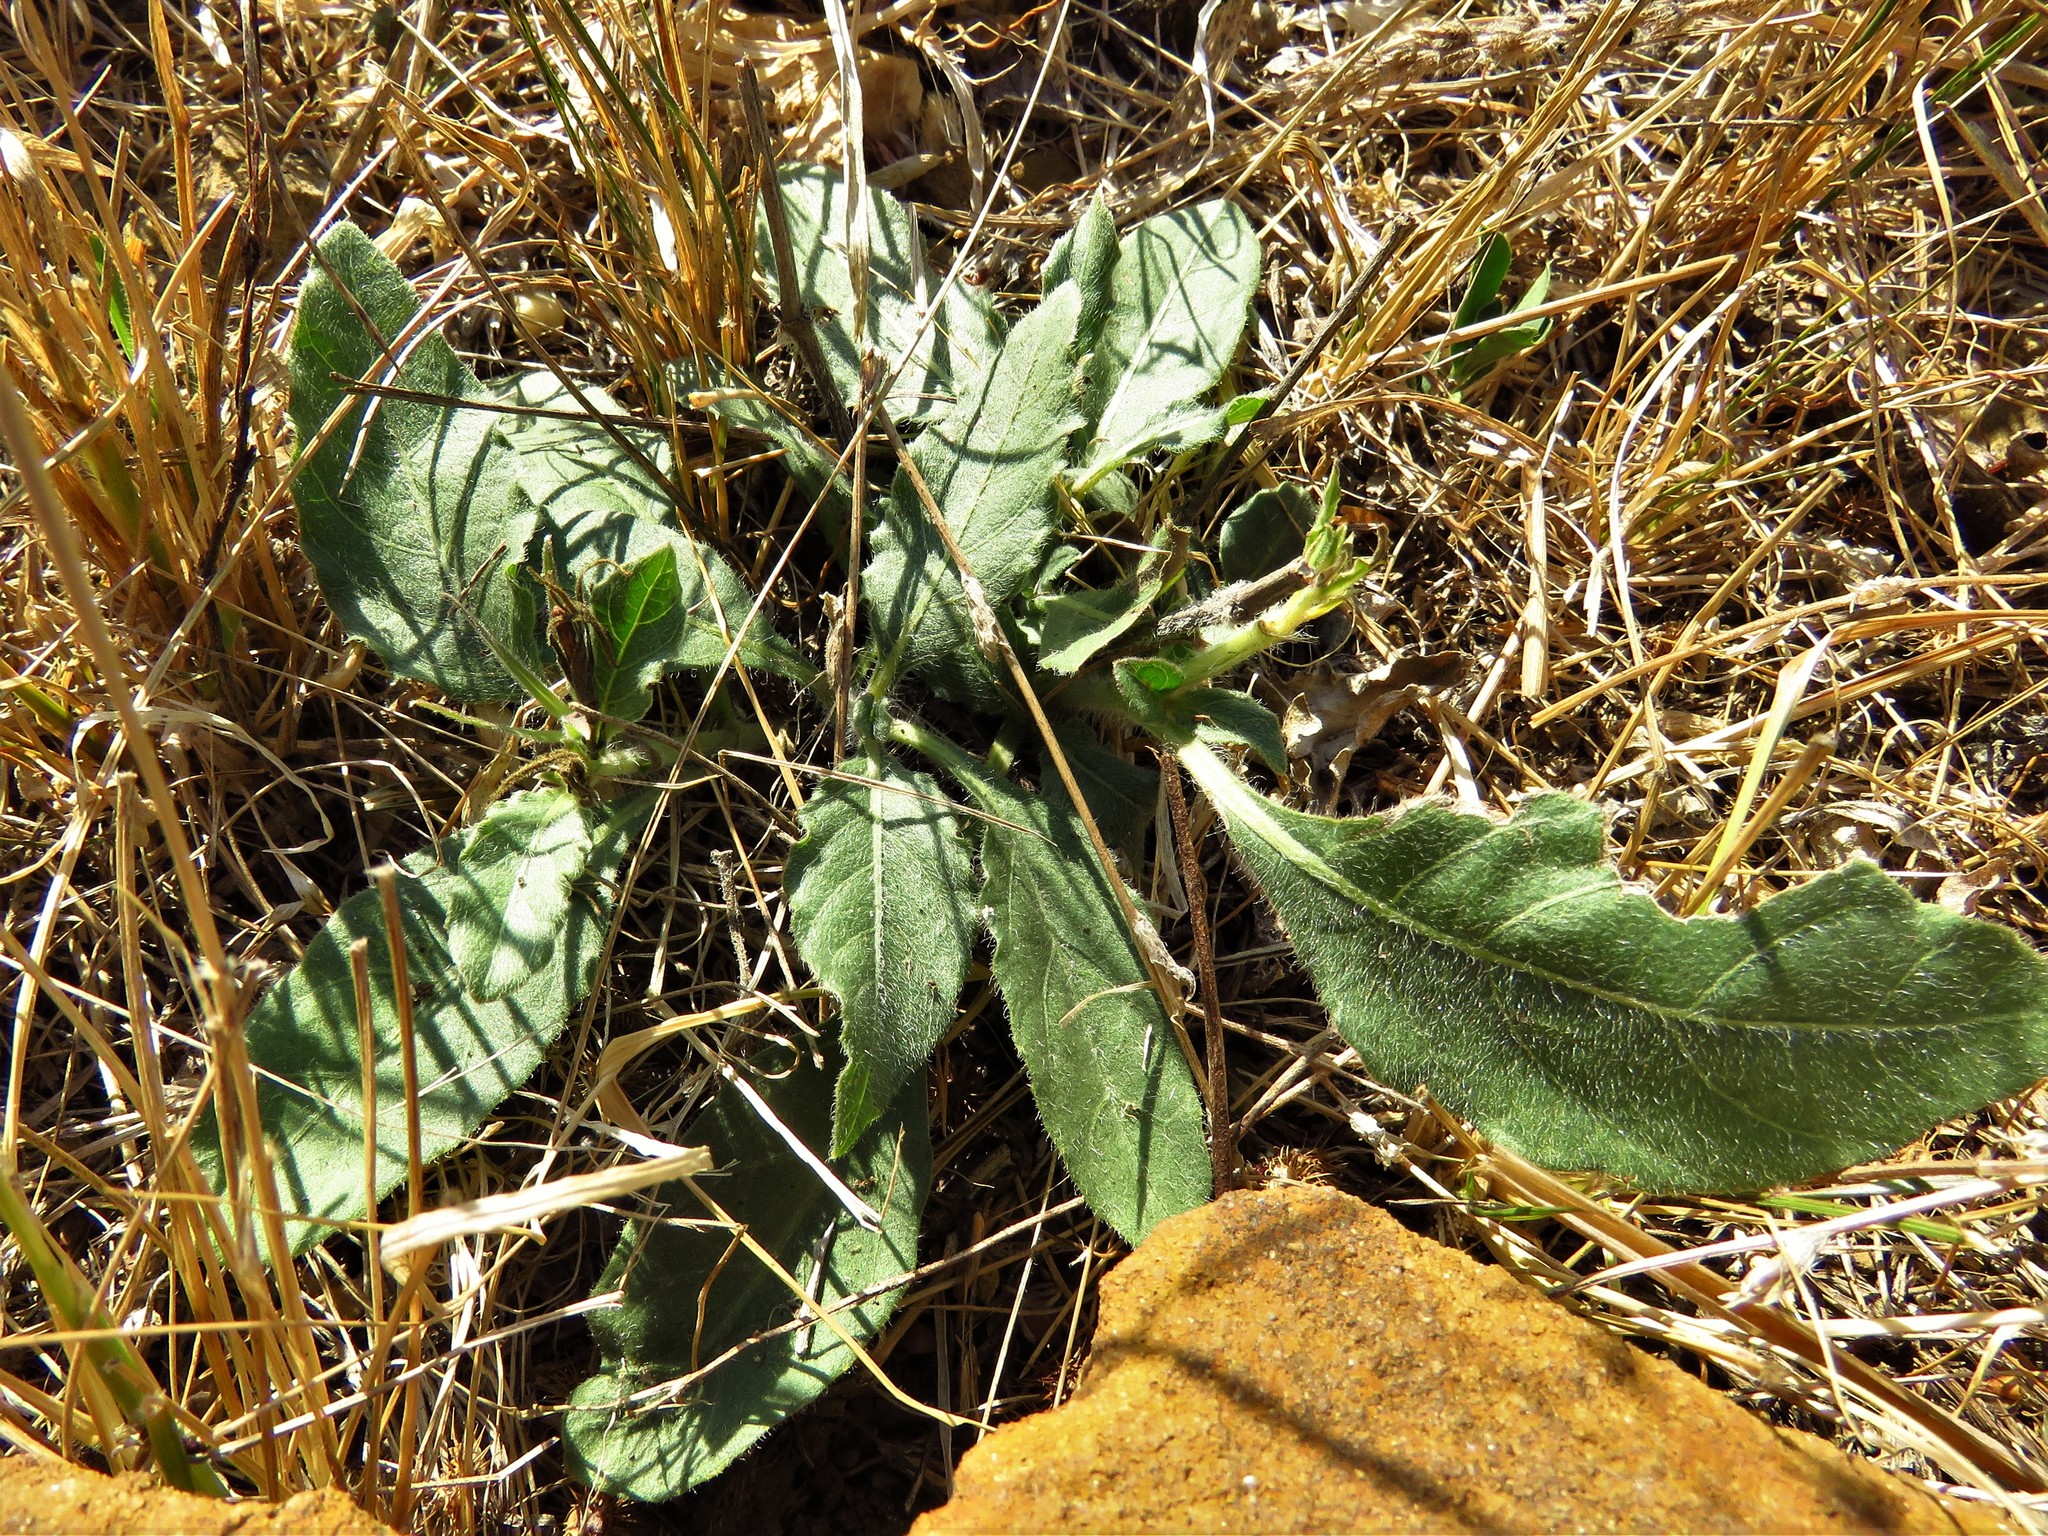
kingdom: Plantae
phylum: Tracheophyta
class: Magnoliopsida
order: Lamiales
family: Acanthaceae
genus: Ruellia
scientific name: Ruellia metziae
